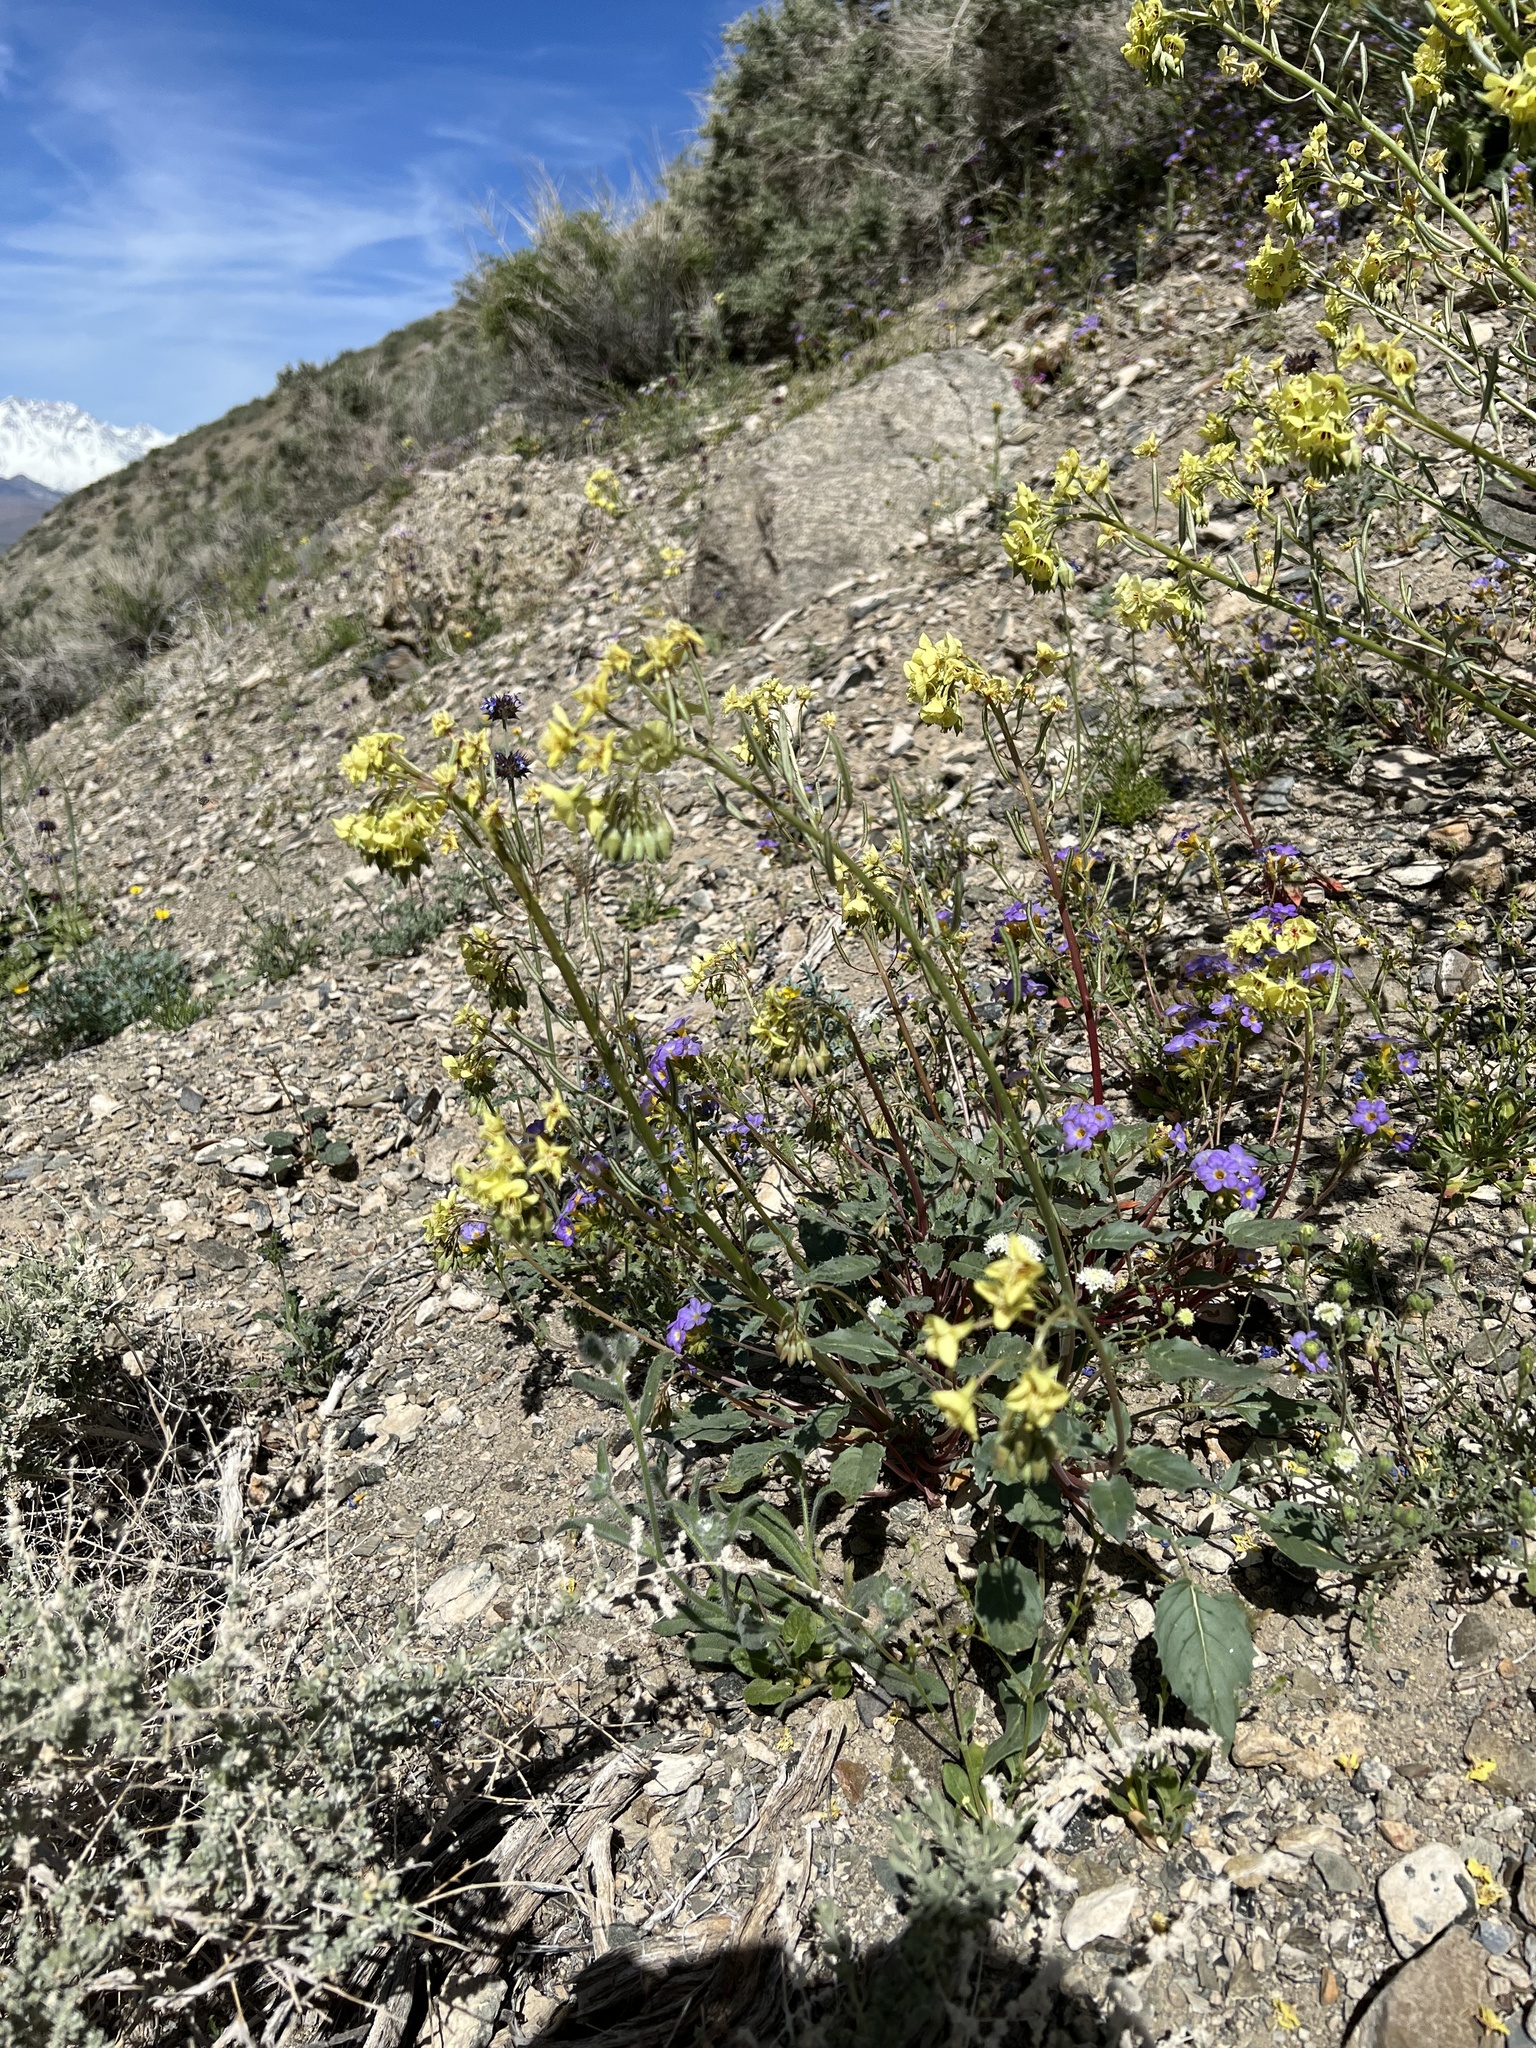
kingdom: Plantae
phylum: Tracheophyta
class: Magnoliopsida
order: Myrtales
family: Onagraceae
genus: Chylismia
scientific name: Chylismia claviformis
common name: Browneyes
